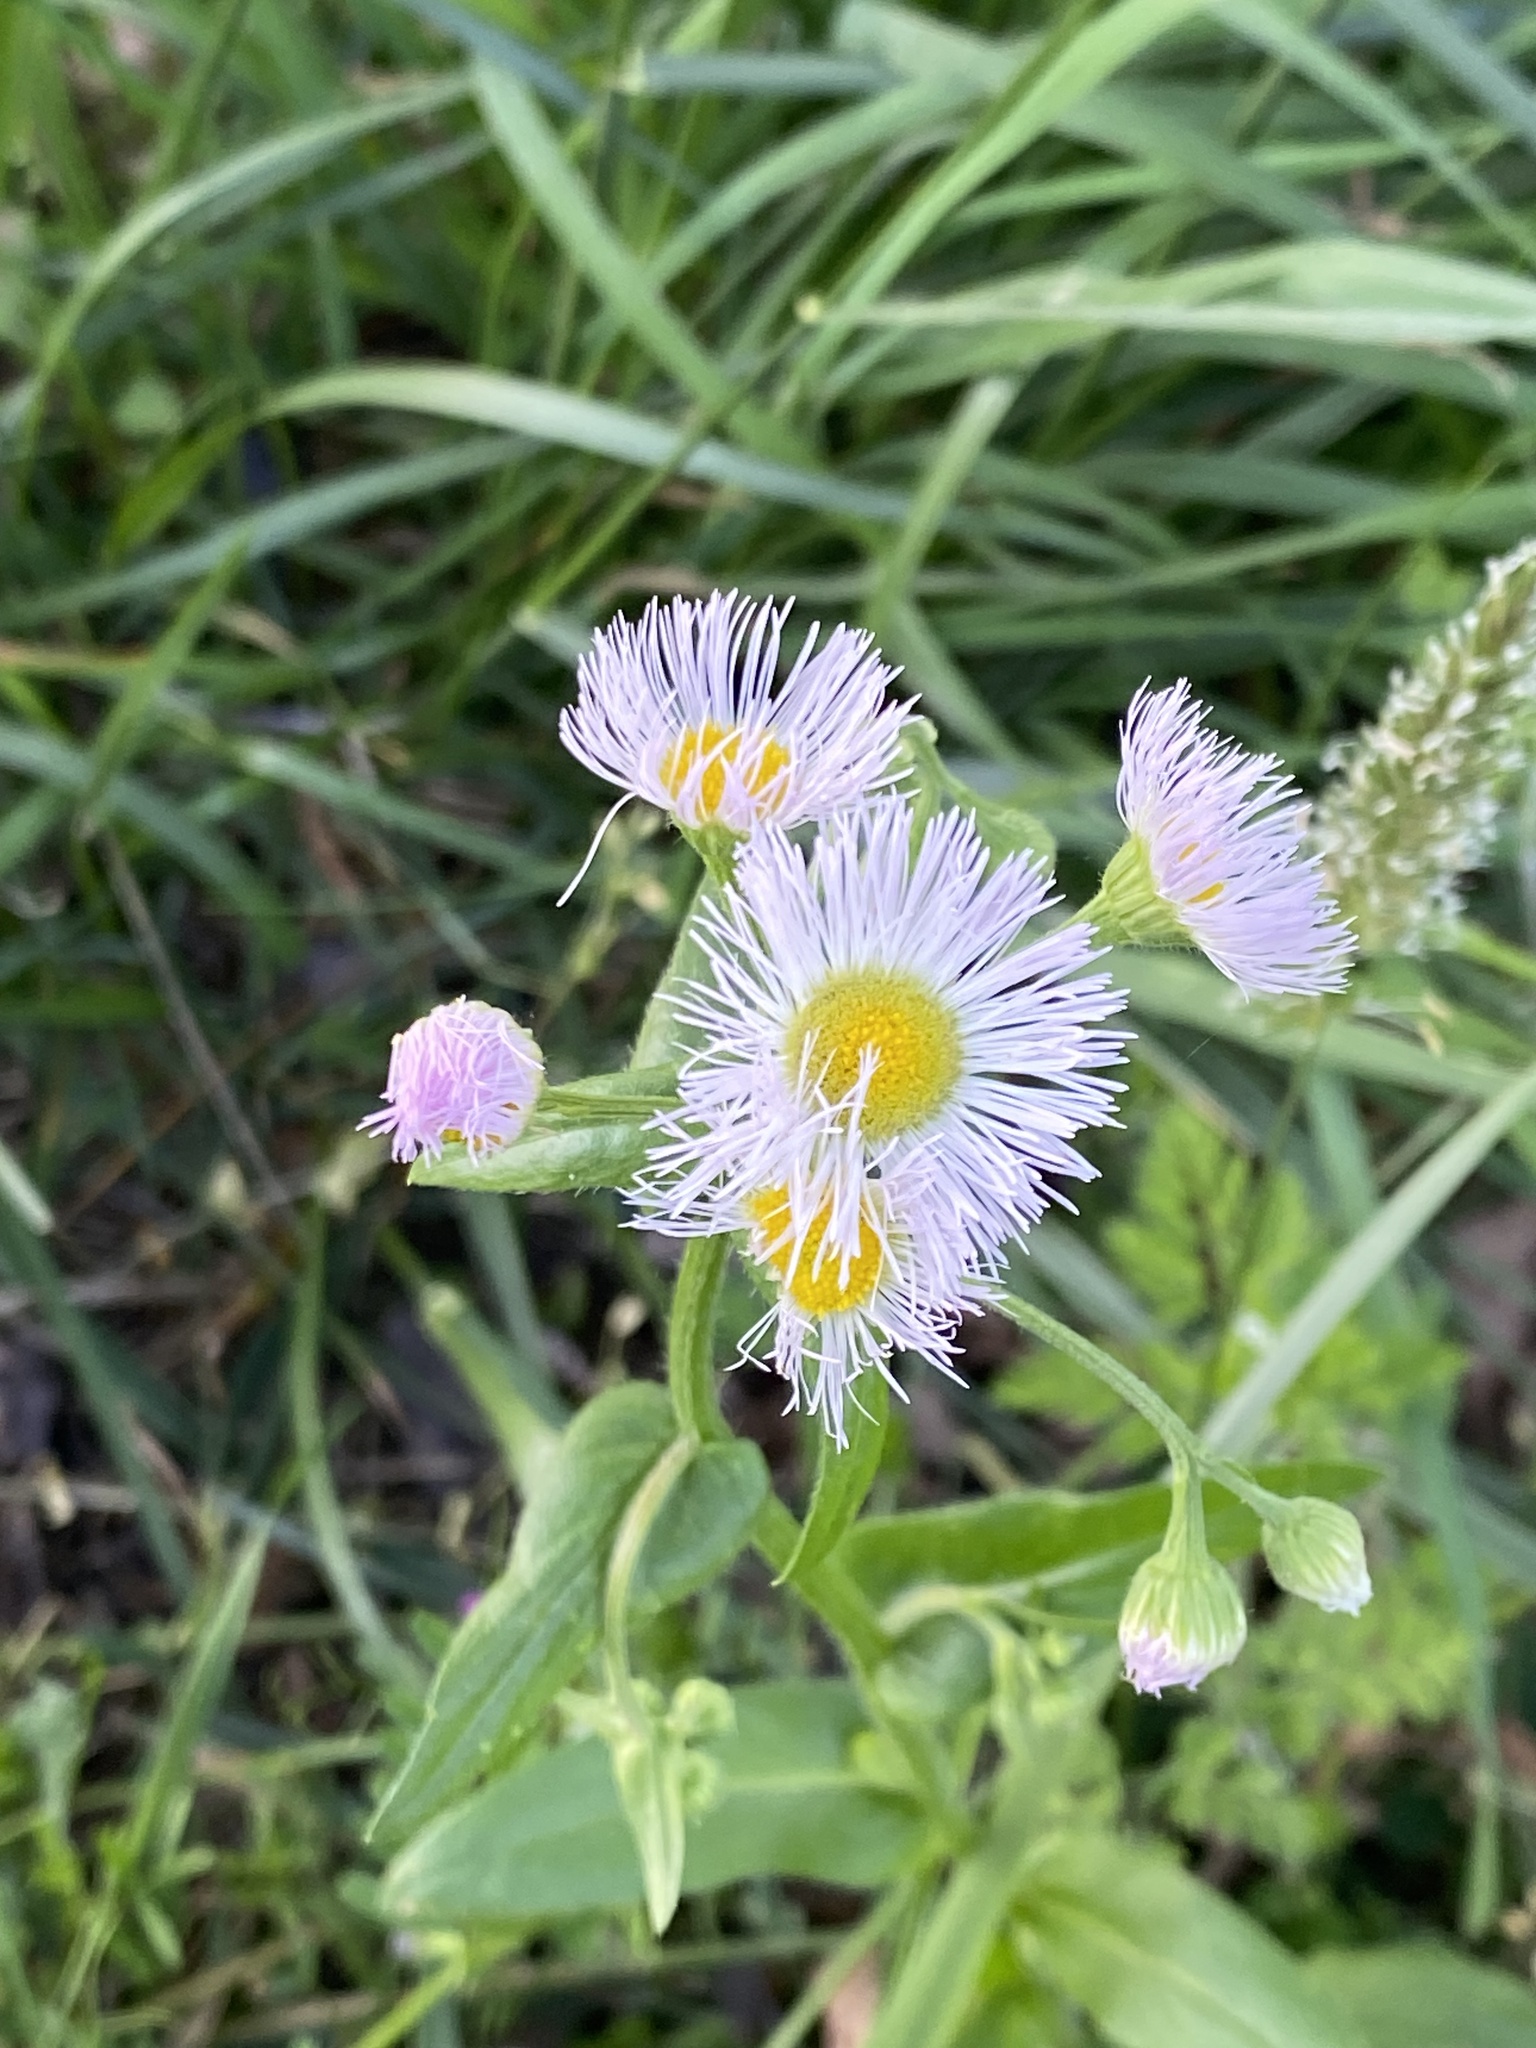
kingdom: Plantae
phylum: Tracheophyta
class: Magnoliopsida
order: Asterales
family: Asteraceae
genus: Erigeron
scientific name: Erigeron philadelphicus
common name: Robin's-plantain
